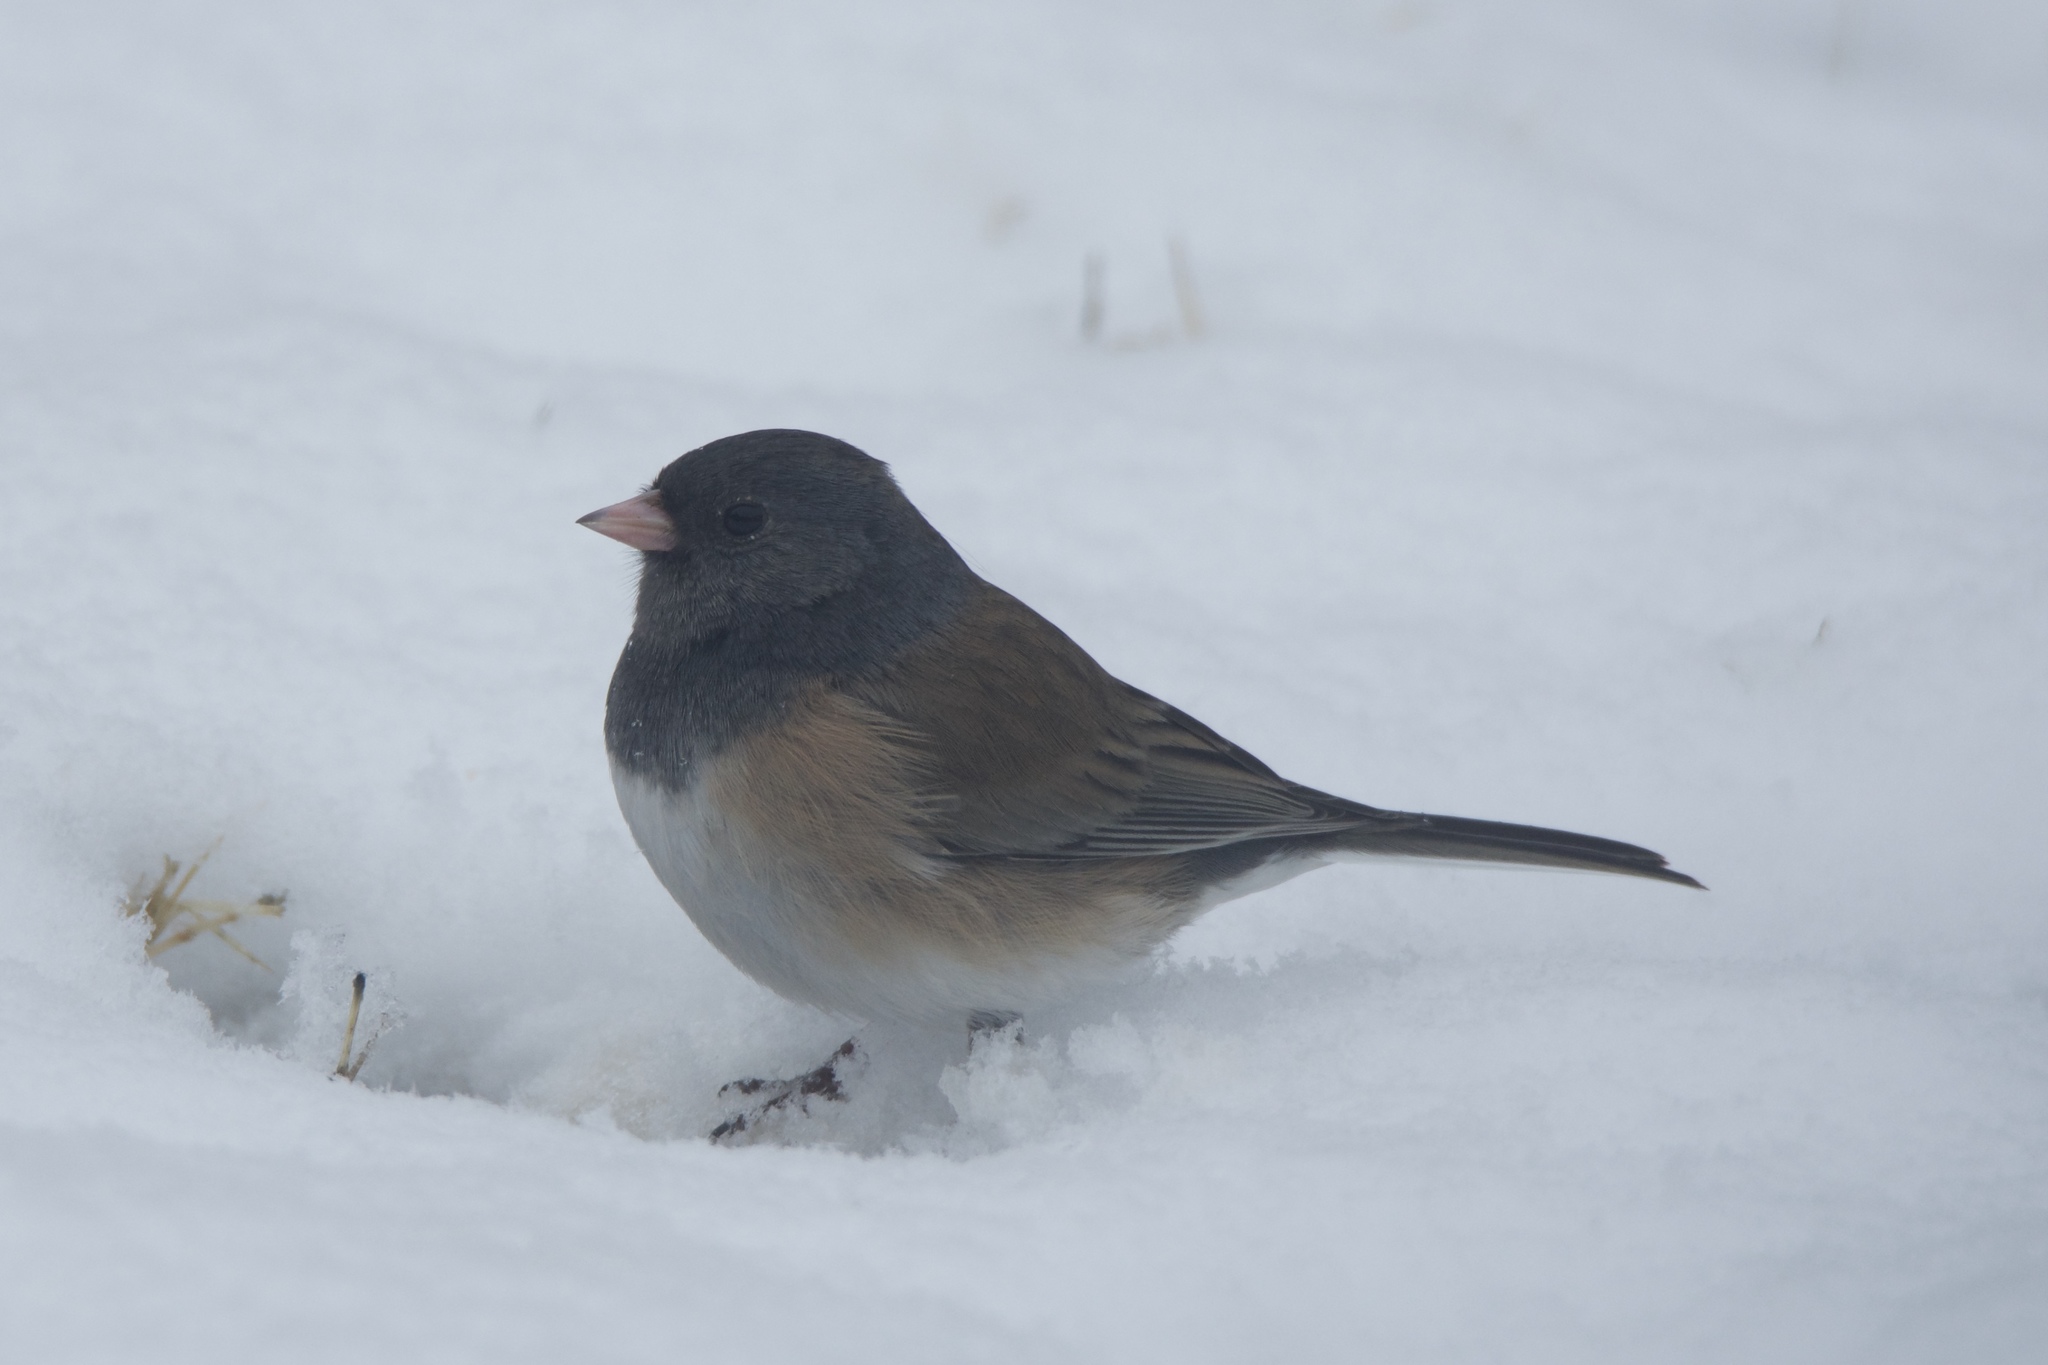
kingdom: Animalia
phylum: Chordata
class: Aves
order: Passeriformes
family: Passerellidae
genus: Junco
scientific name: Junco hyemalis
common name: Dark-eyed junco
